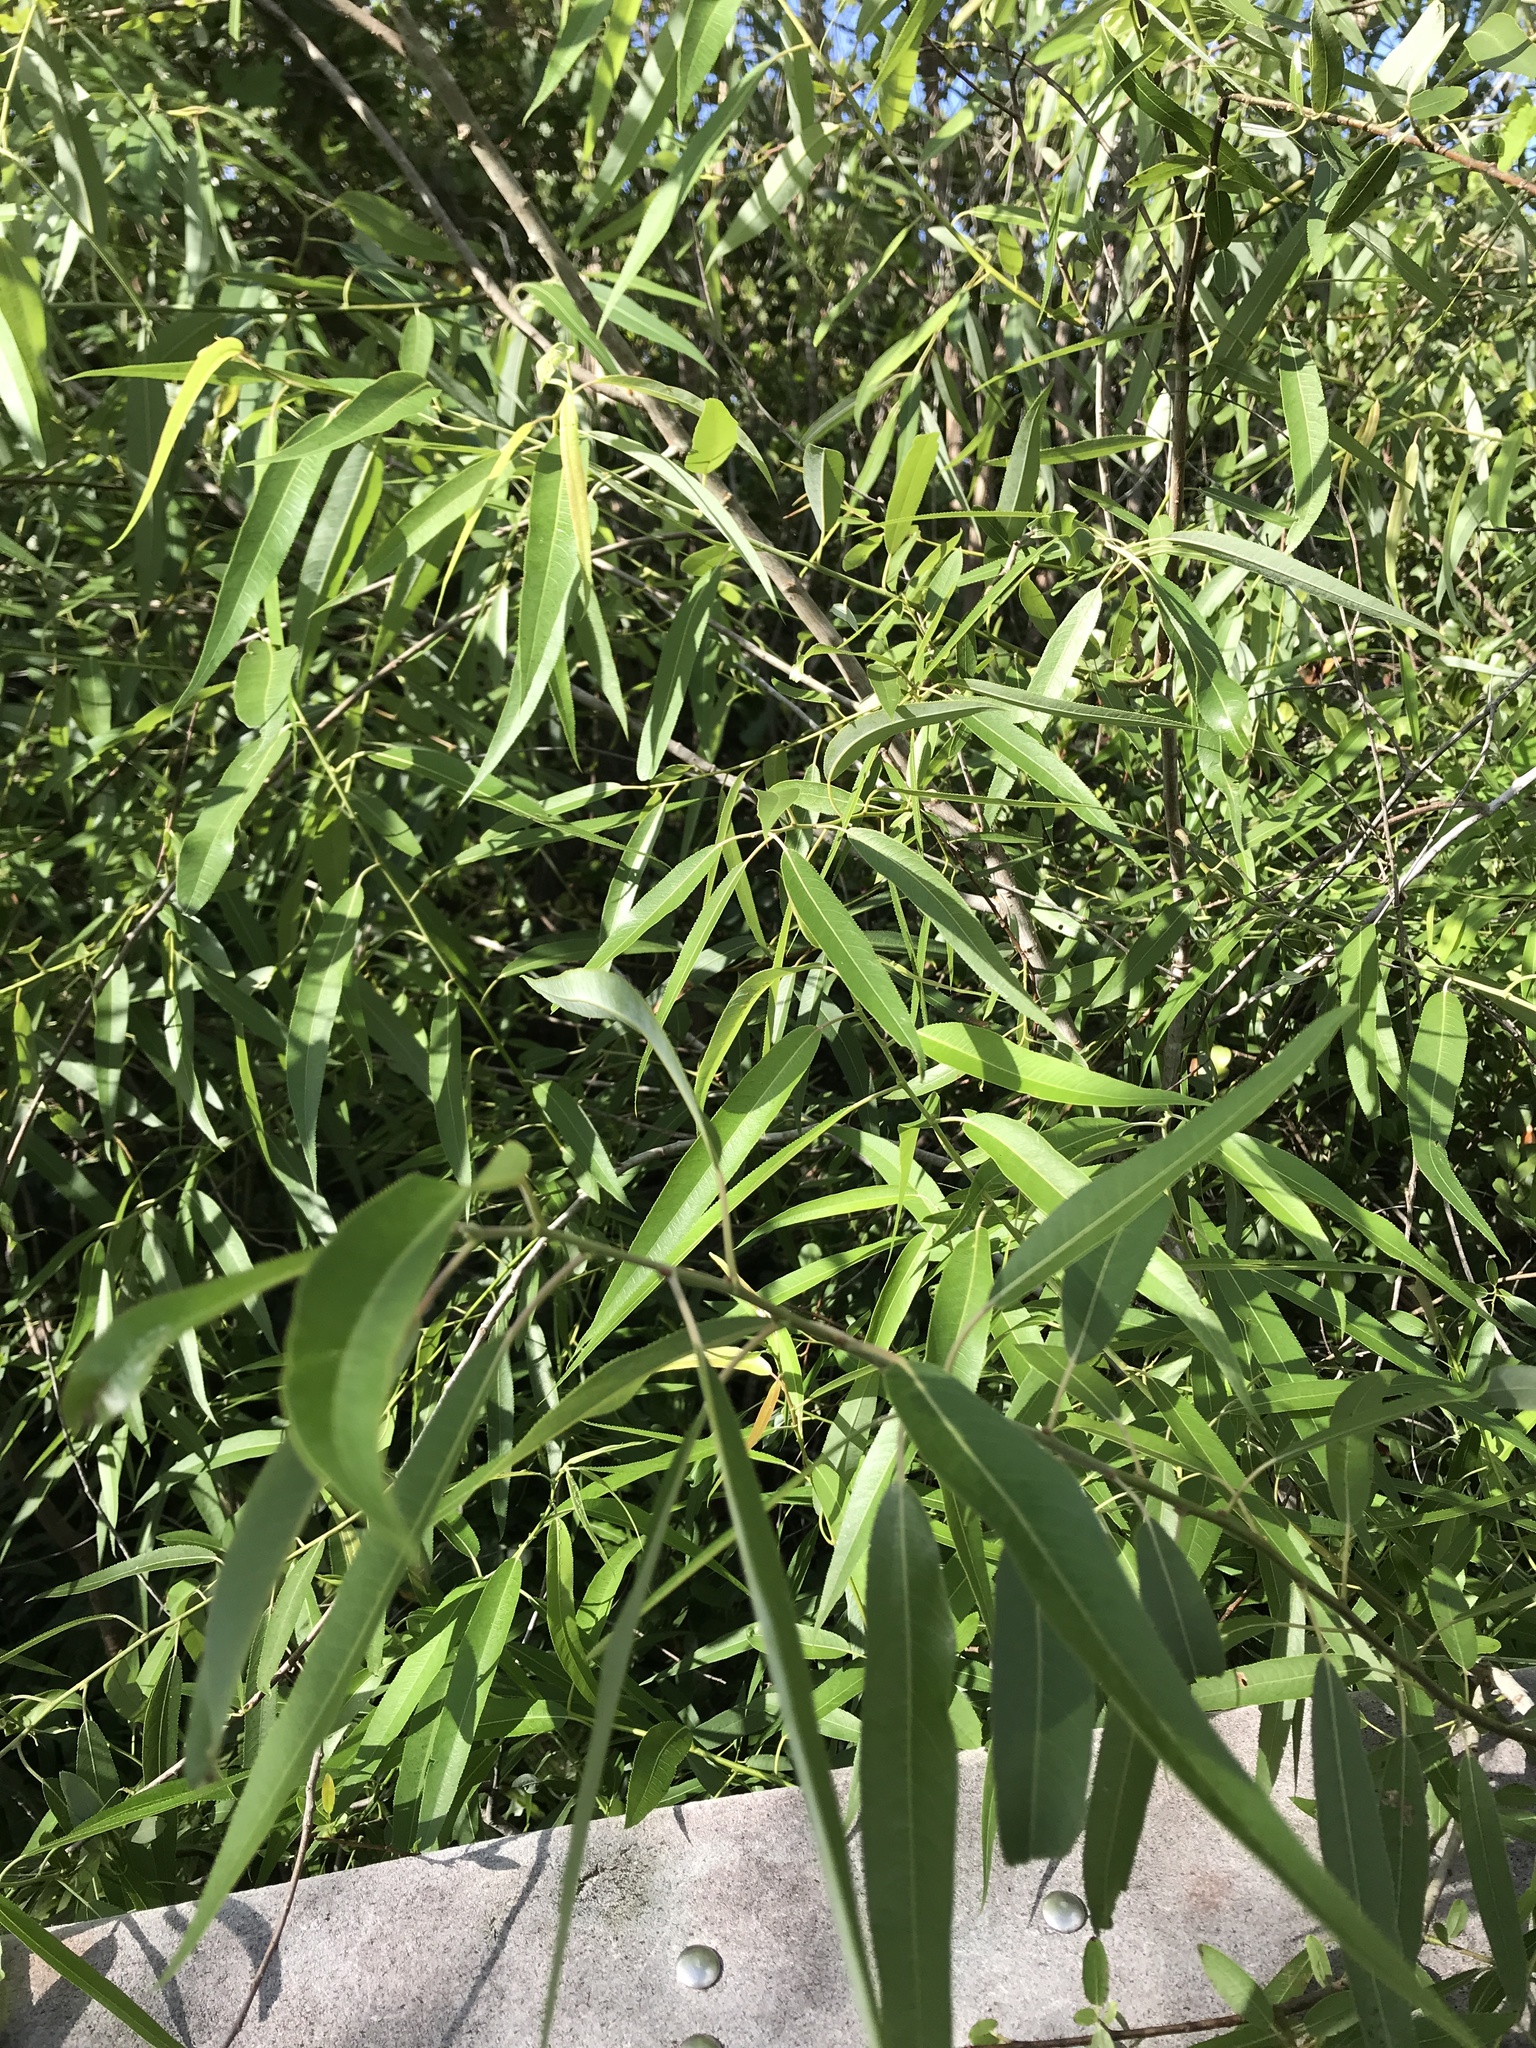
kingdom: Plantae
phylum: Tracheophyta
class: Magnoliopsida
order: Malpighiales
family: Salicaceae
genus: Salix
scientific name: Salix caroliniana
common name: Carolina willow
